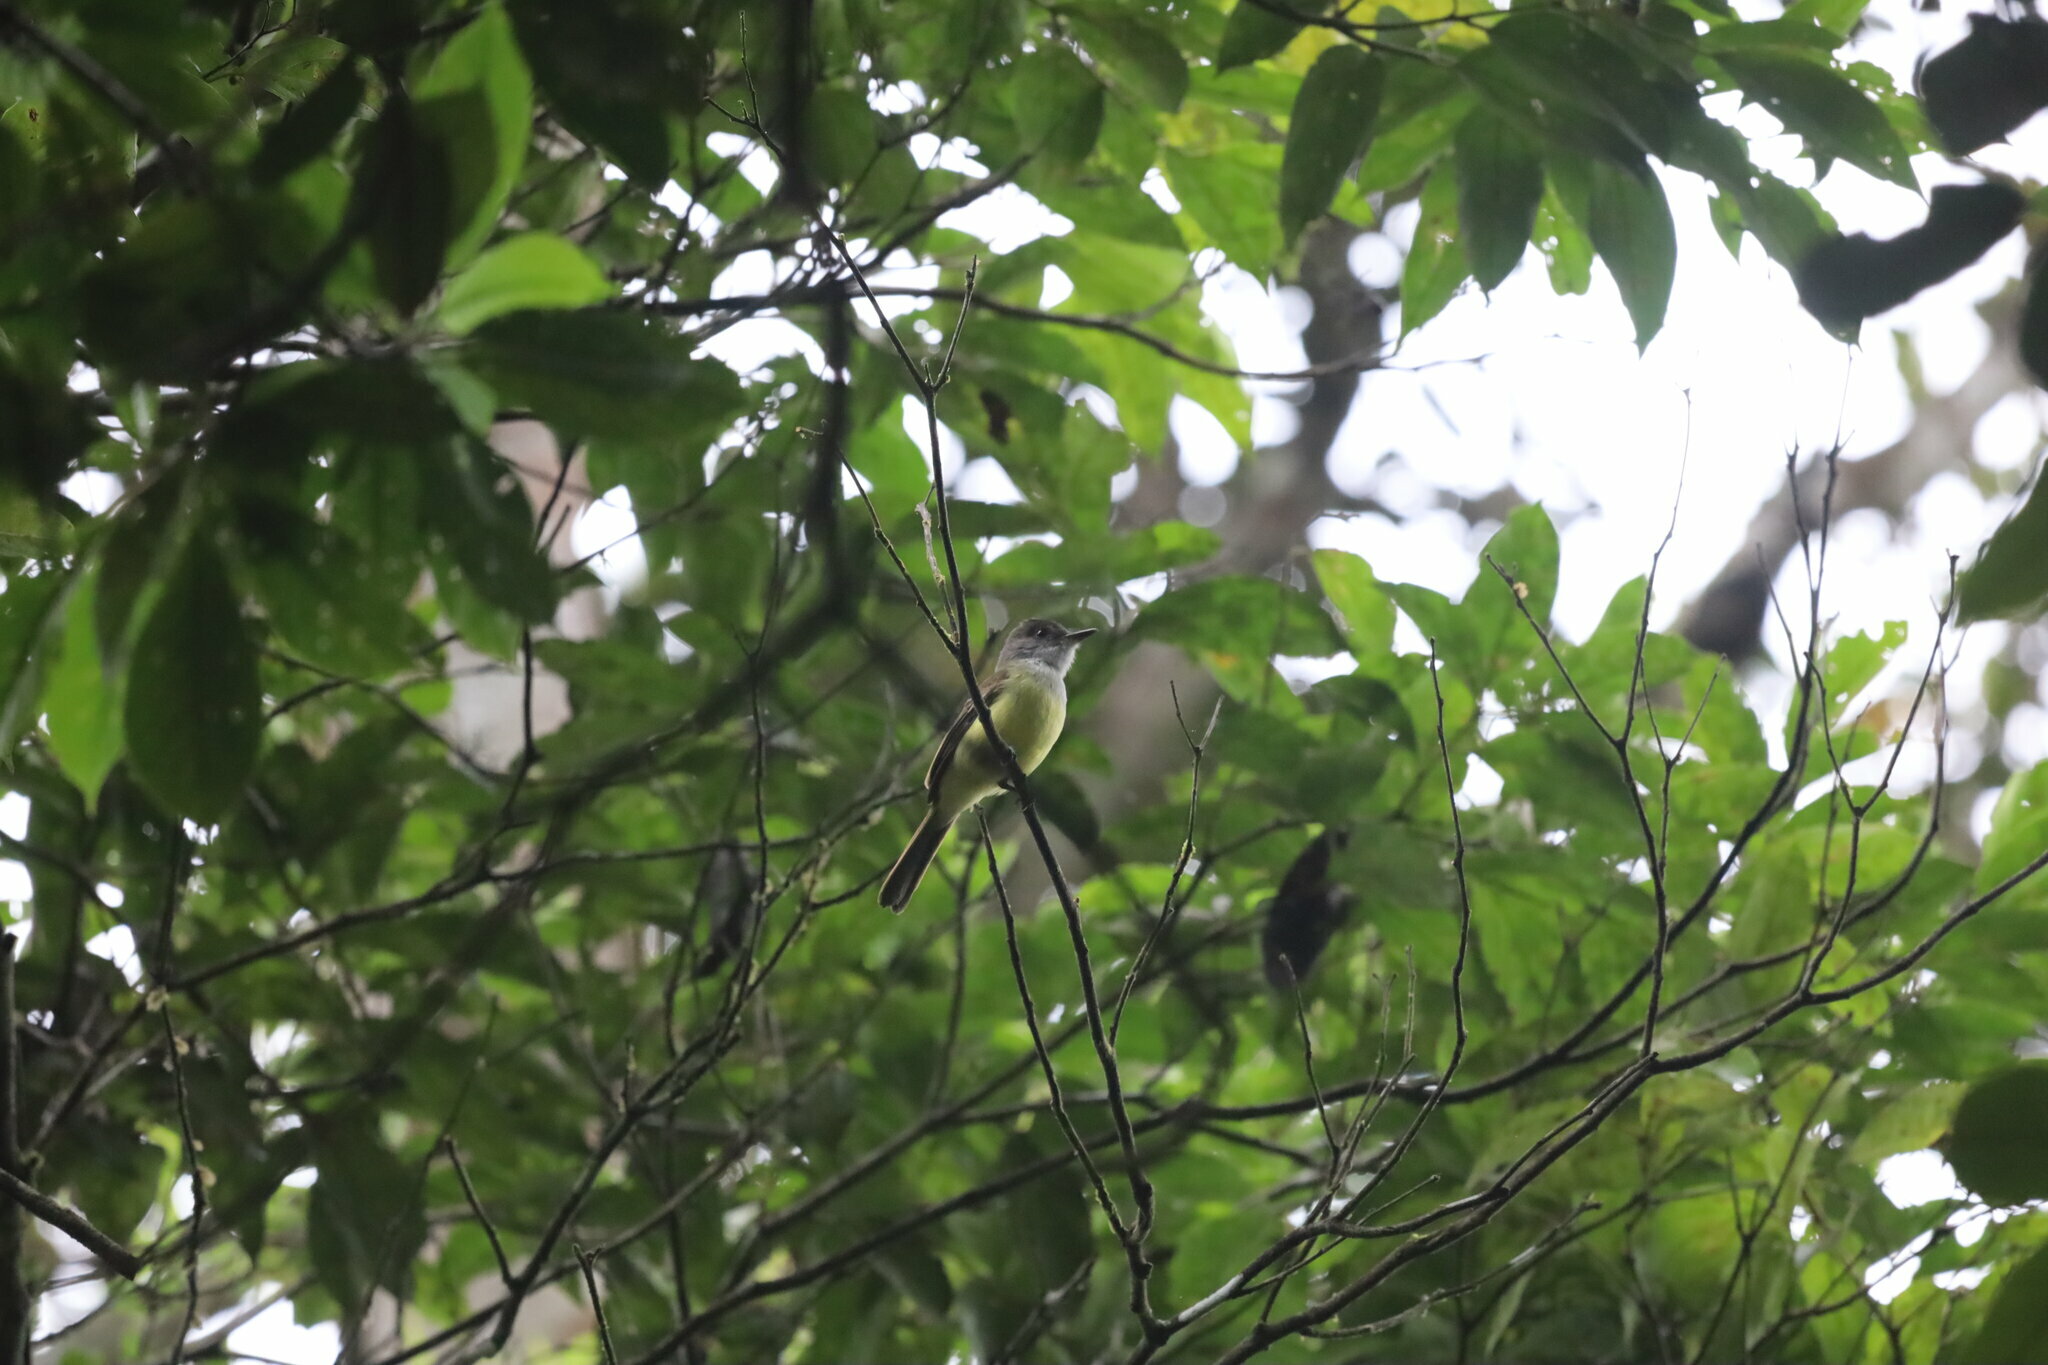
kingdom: Animalia
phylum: Chordata
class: Aves
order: Passeriformes
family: Tyrannidae
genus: Myiarchus
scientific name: Myiarchus tuberculifer
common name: Dusky-capped flycatcher
